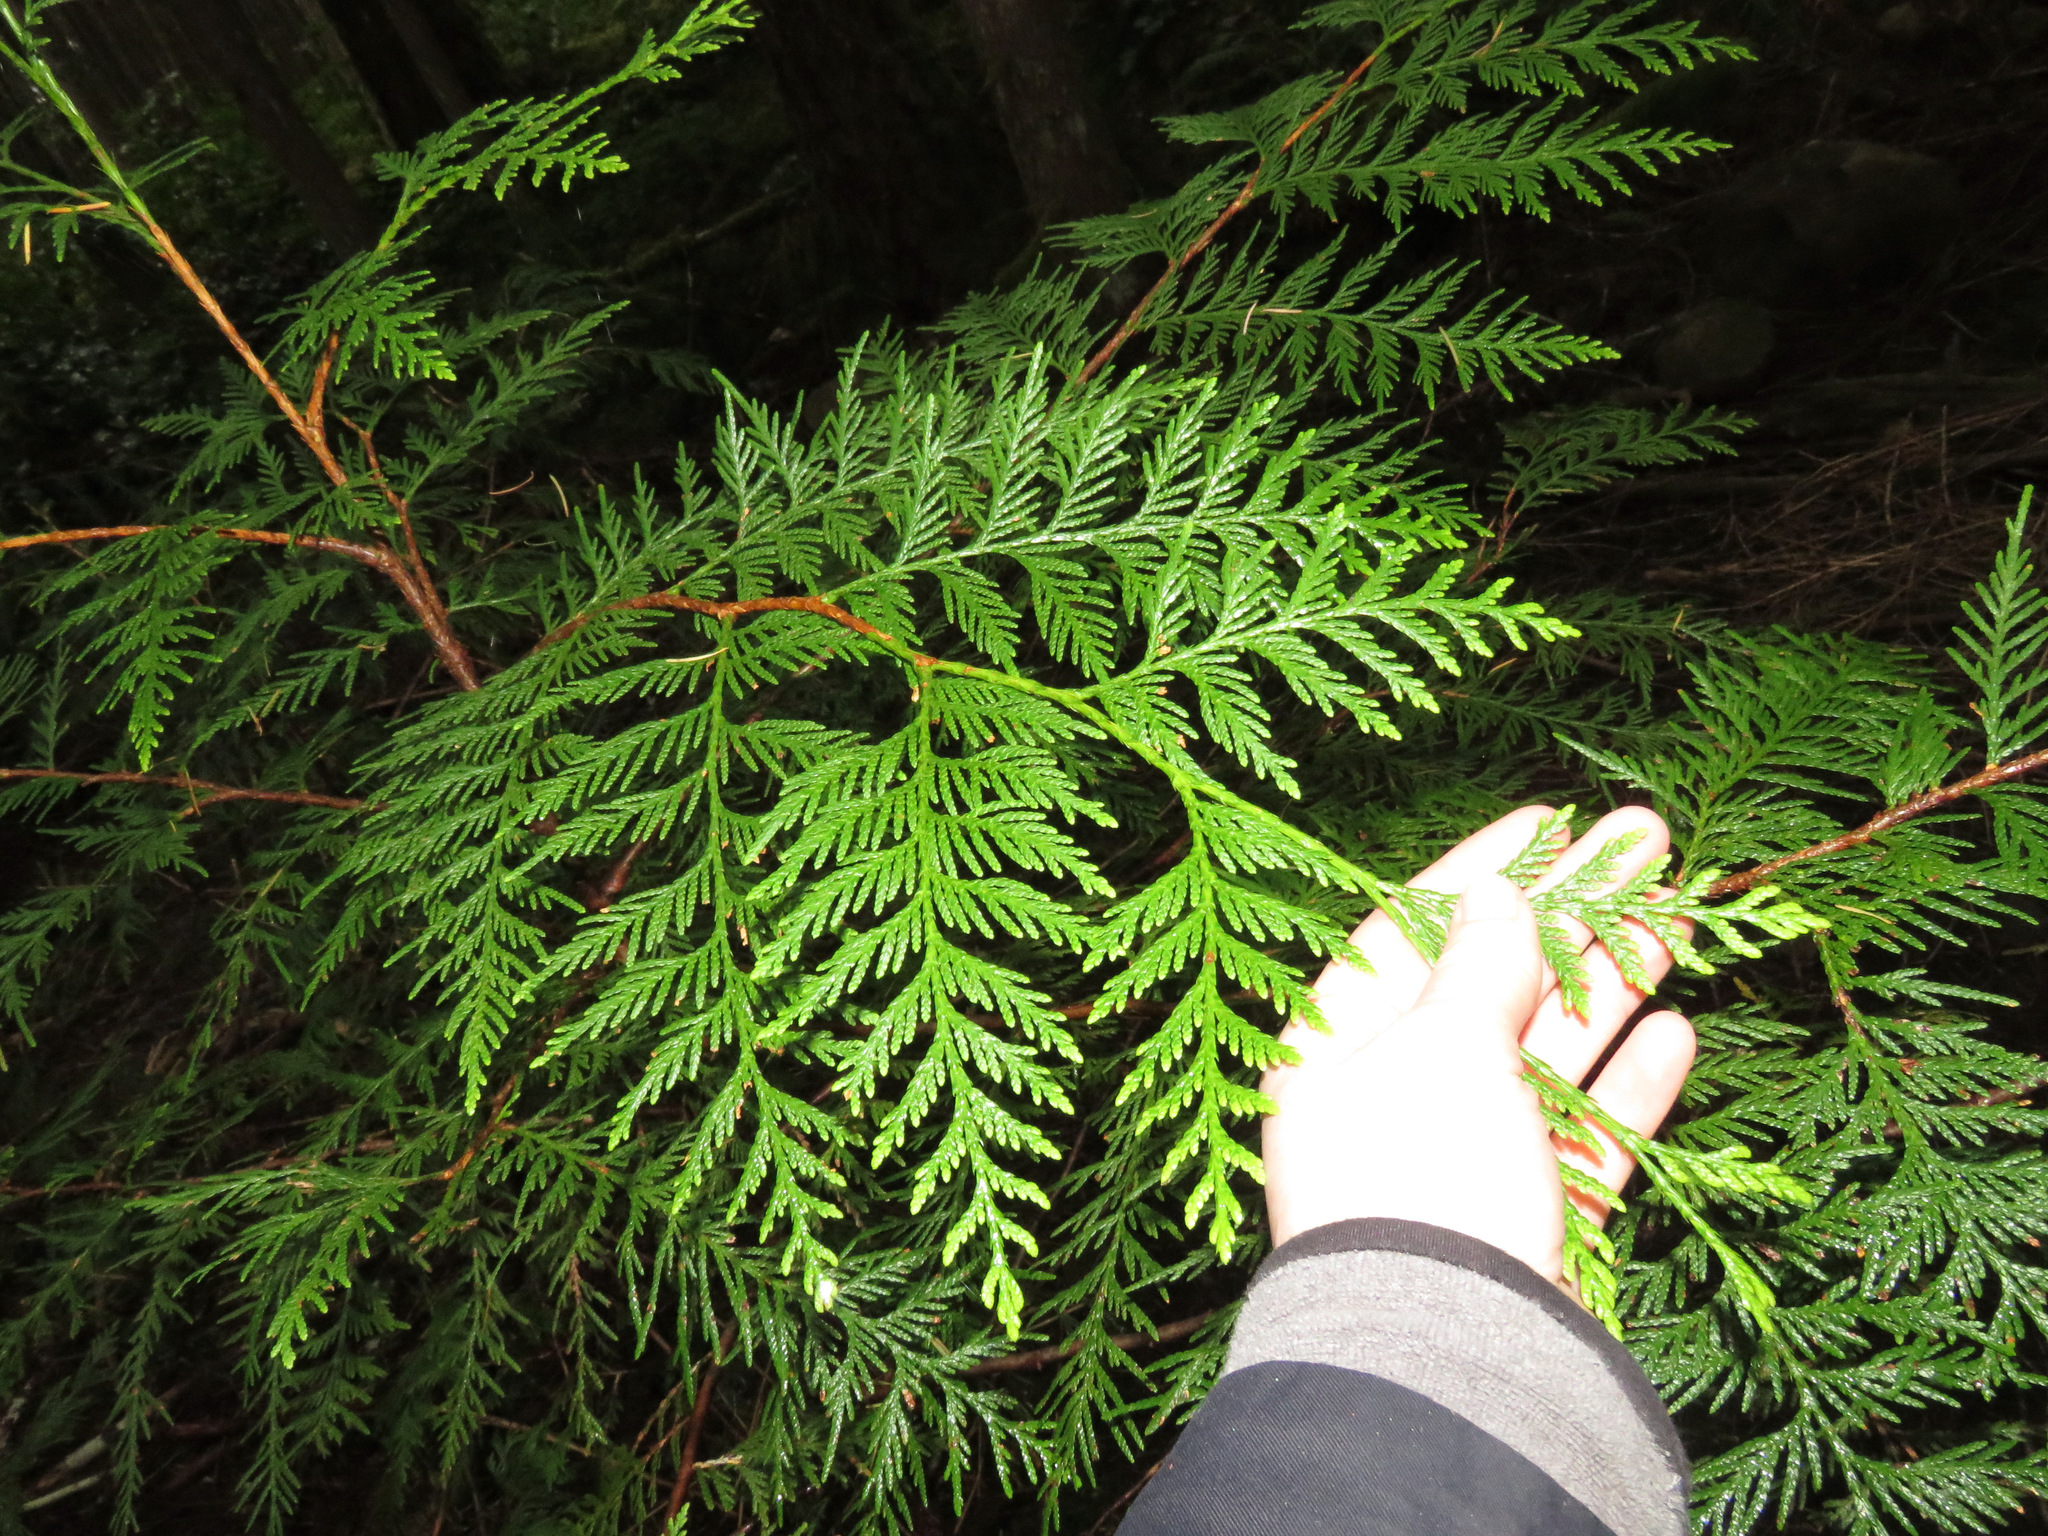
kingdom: Plantae
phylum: Tracheophyta
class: Pinopsida
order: Pinales
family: Cupressaceae
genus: Thuja
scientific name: Thuja plicata
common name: Western red-cedar
